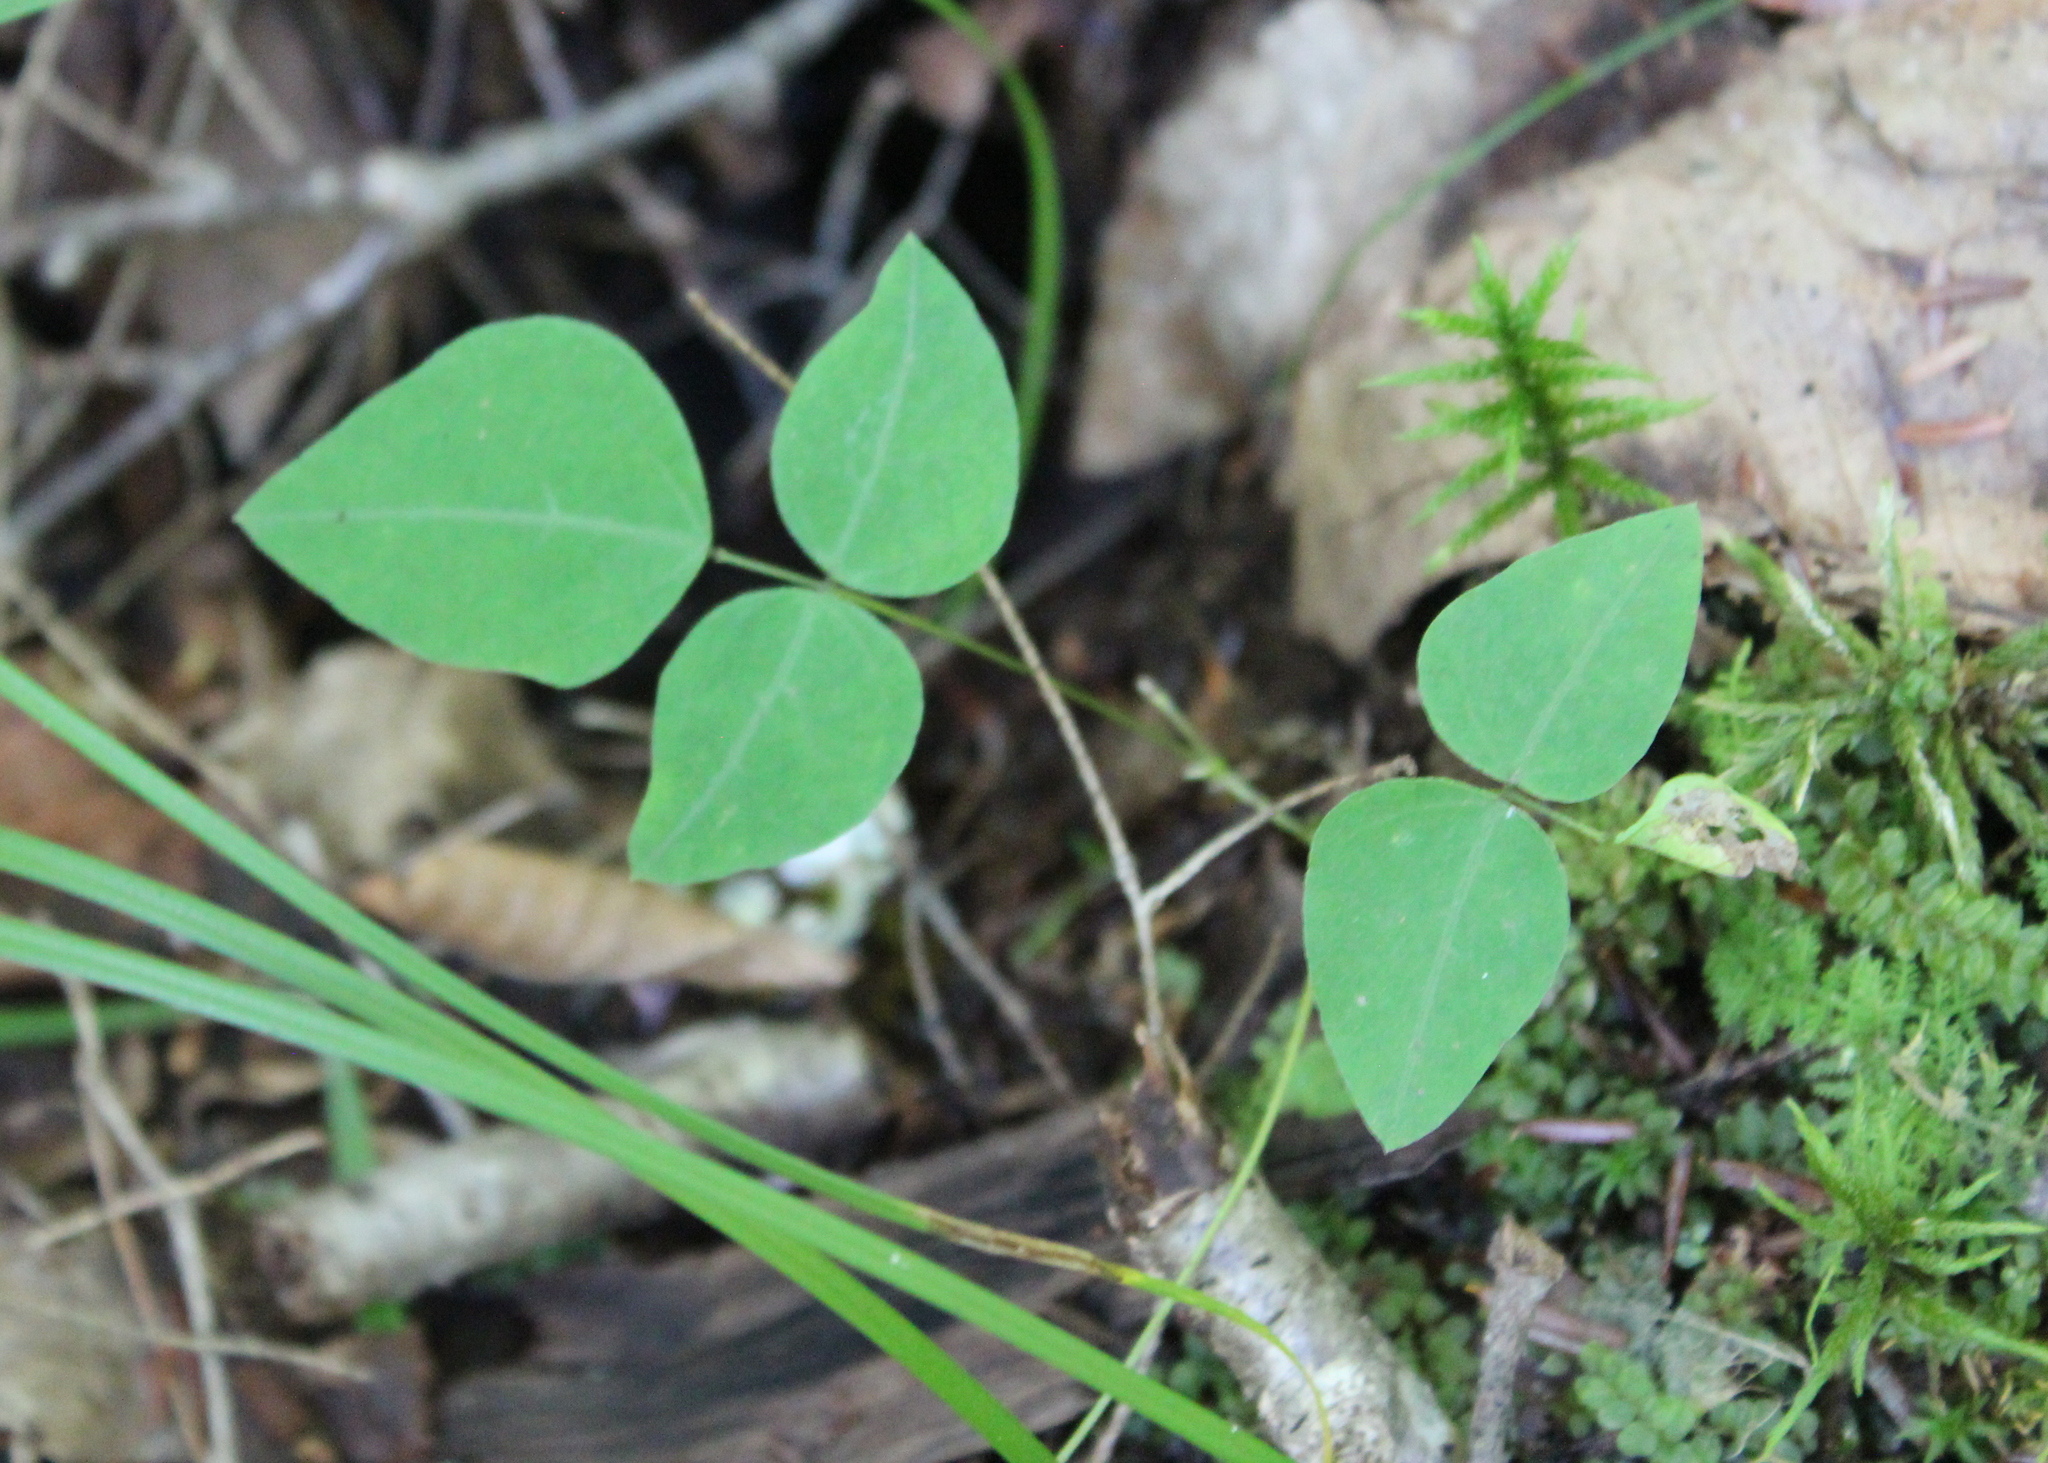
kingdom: Plantae
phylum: Tracheophyta
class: Magnoliopsida
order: Fabales
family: Fabaceae
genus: Amphicarpaea
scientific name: Amphicarpaea bracteata
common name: American hog peanut
